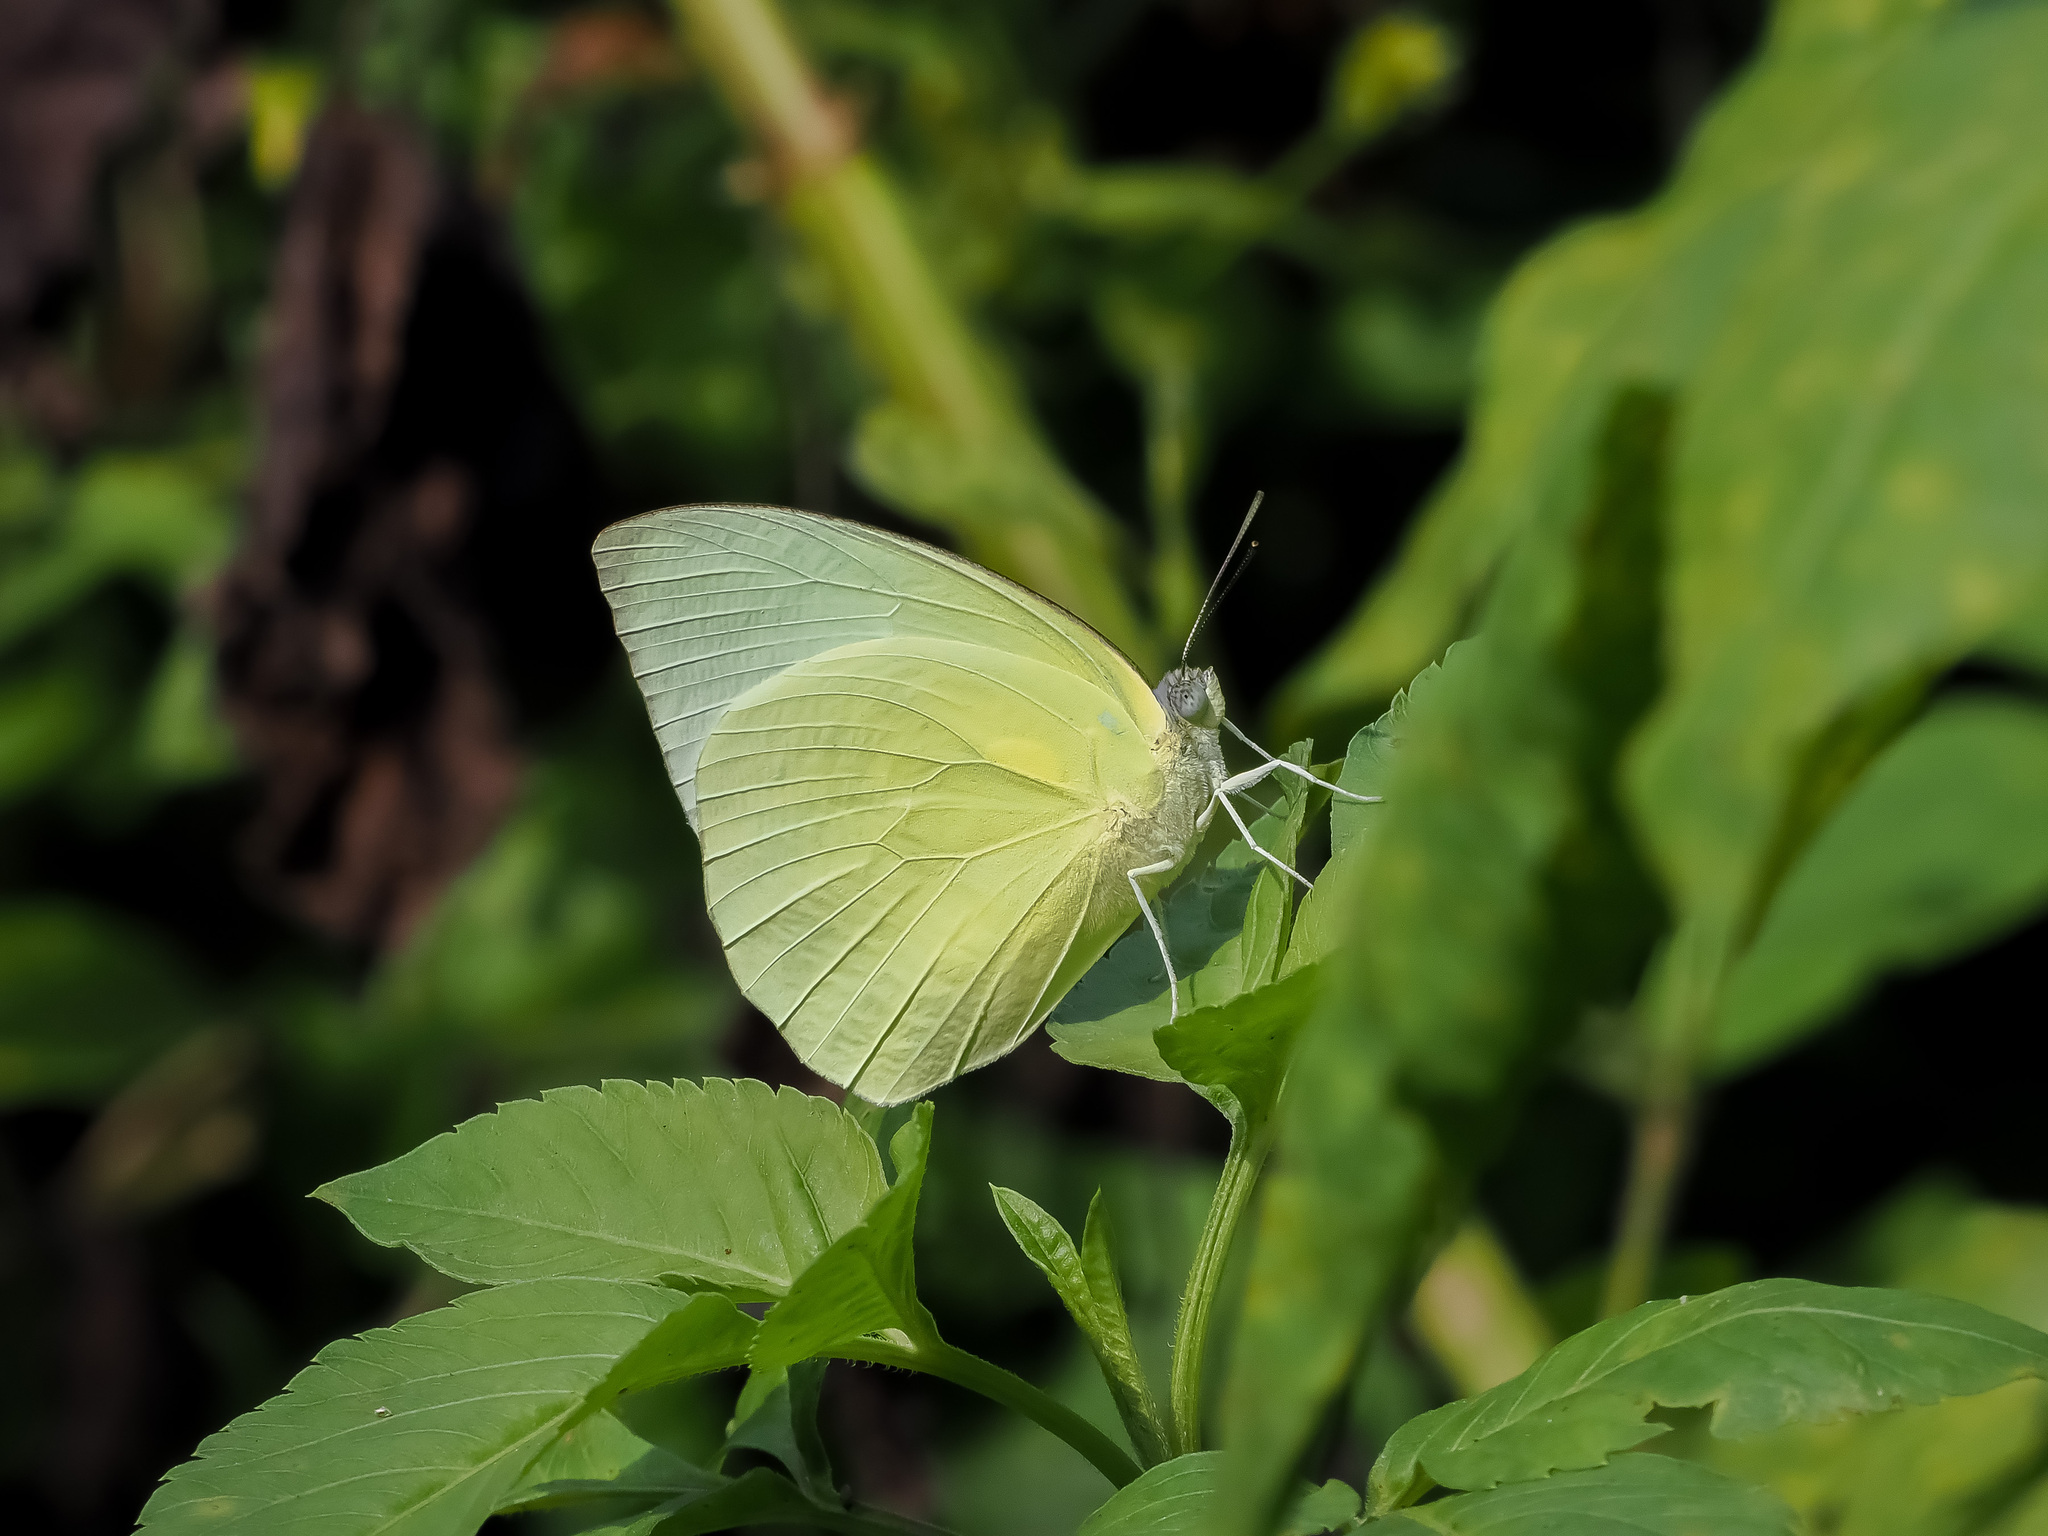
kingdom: Animalia
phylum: Arthropoda
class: Insecta
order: Lepidoptera
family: Pieridae
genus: Catopsilia
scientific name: Catopsilia pomona
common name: Common emigrant
